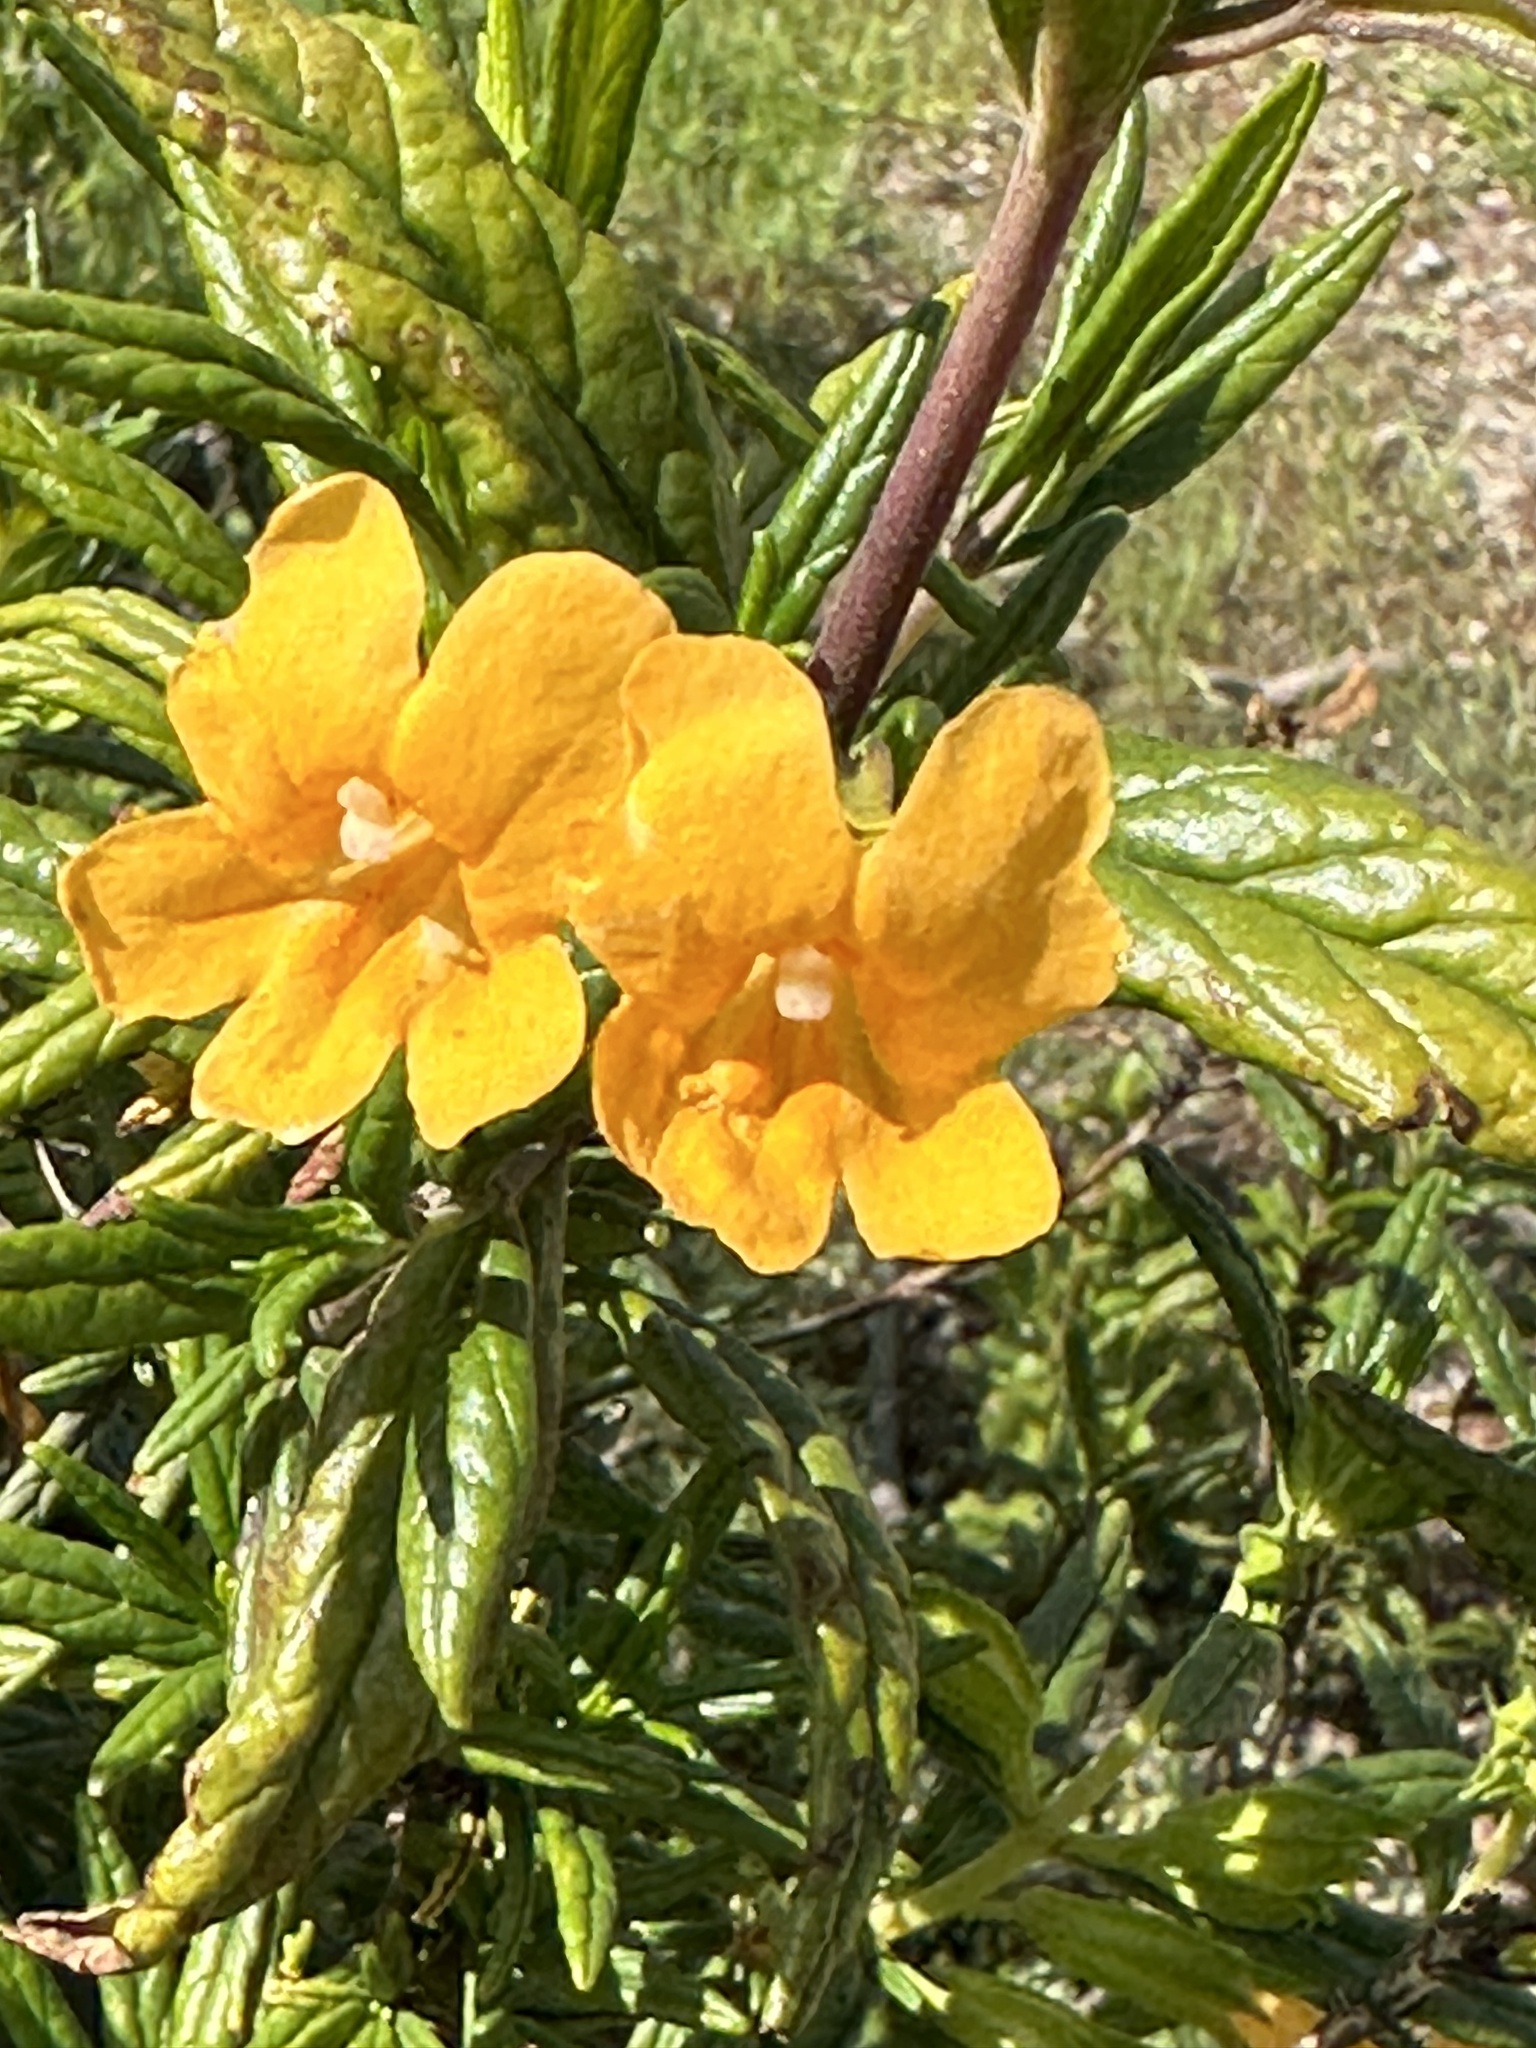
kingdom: Plantae
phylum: Tracheophyta
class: Magnoliopsida
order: Lamiales
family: Phrymaceae
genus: Diplacus
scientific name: Diplacus aurantiacus
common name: Bush monkey-flower
